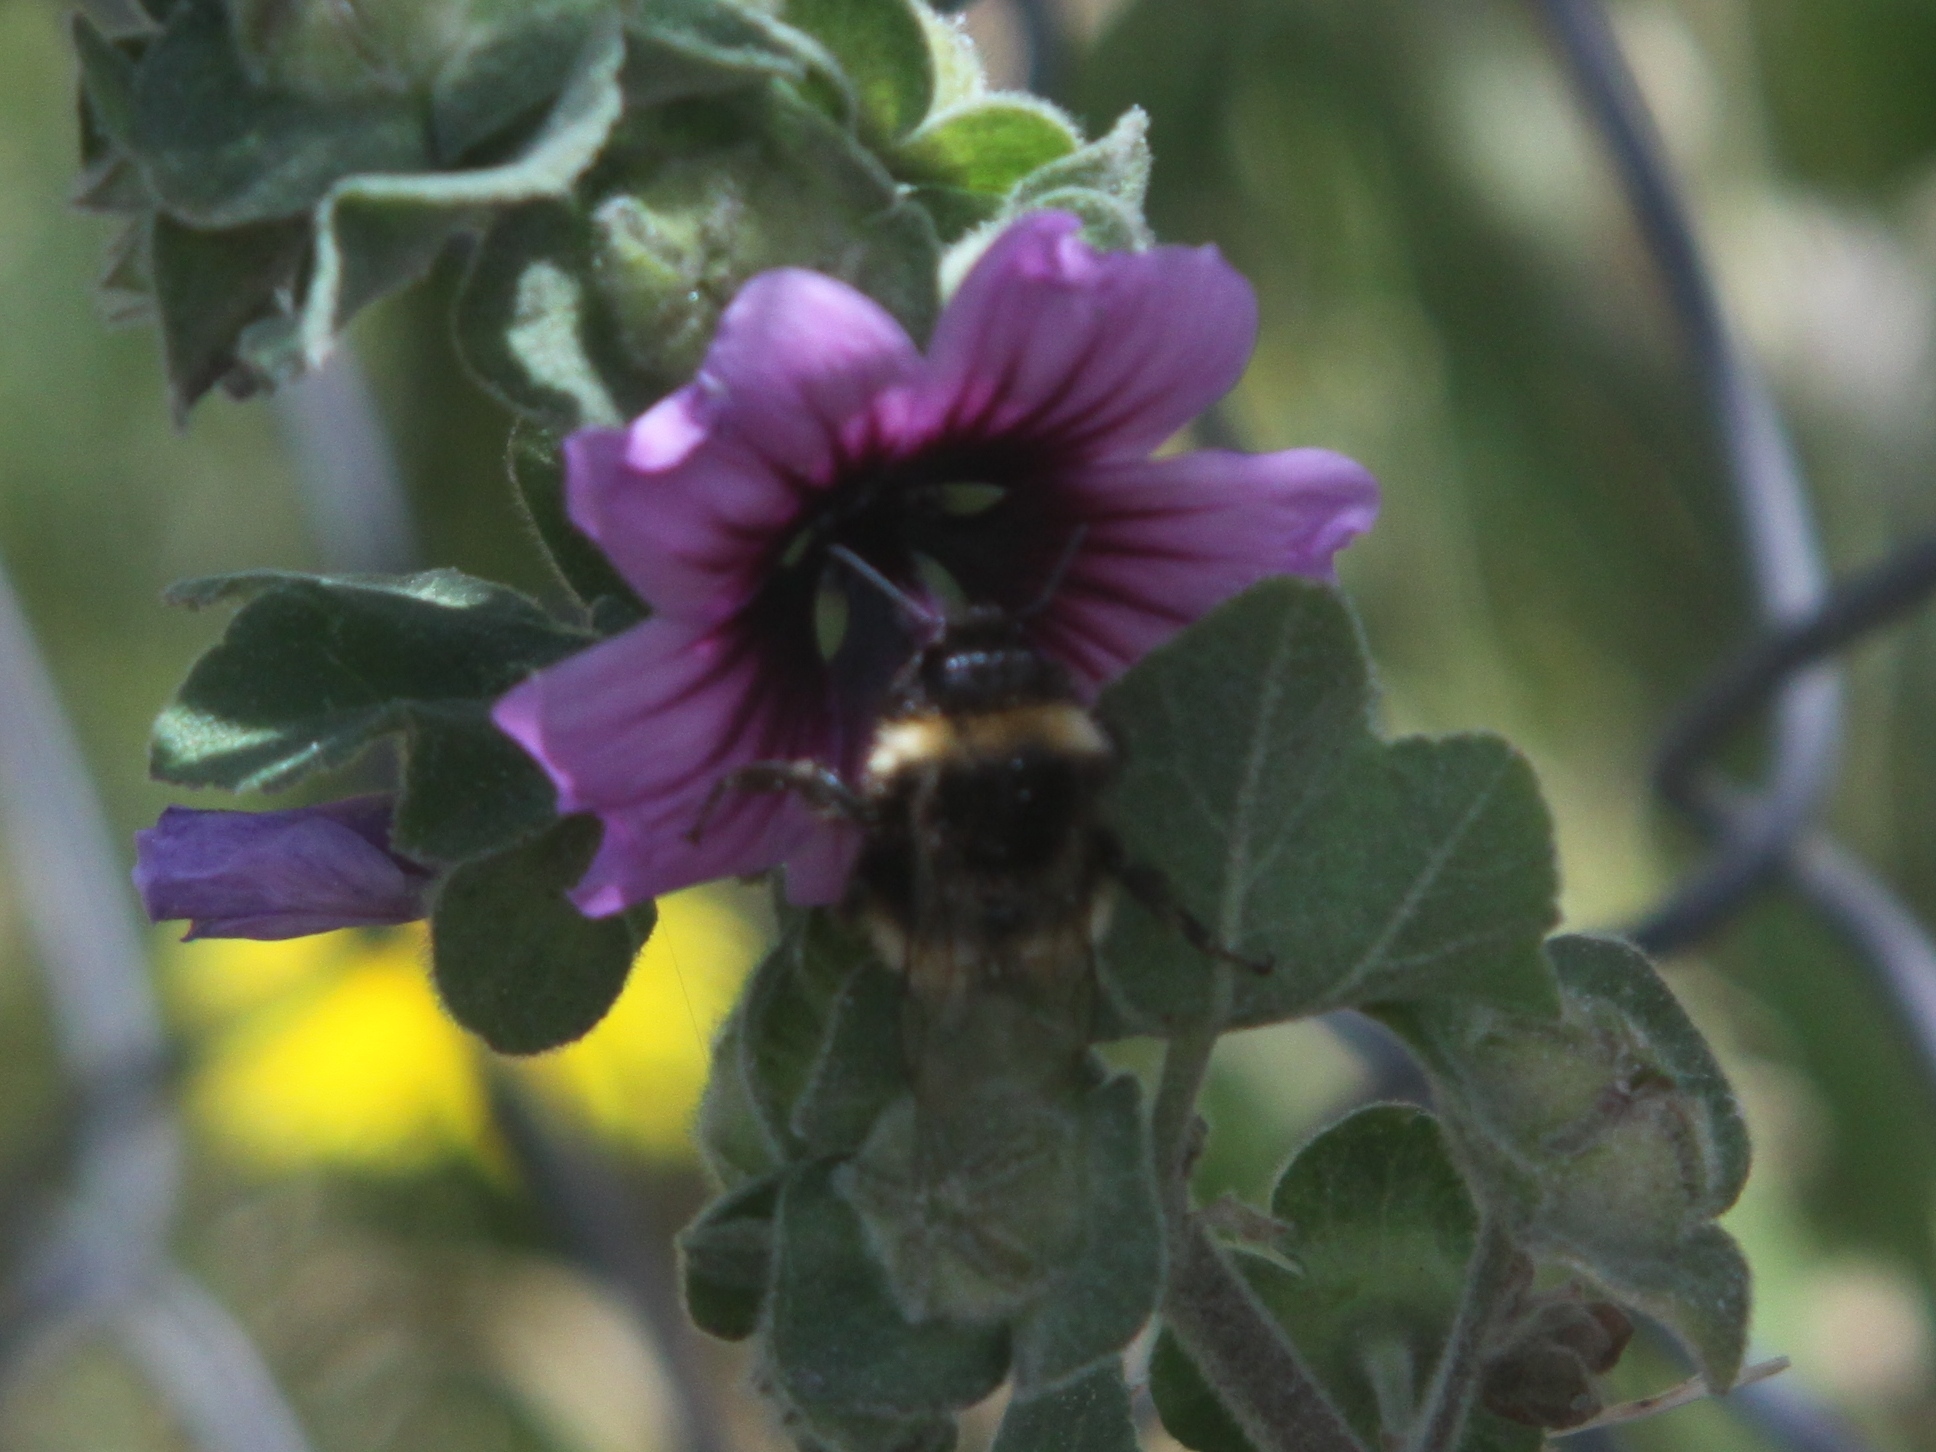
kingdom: Animalia
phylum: Arthropoda
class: Insecta
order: Hymenoptera
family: Apidae
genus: Bombus
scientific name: Bombus terrestris
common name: Buff-tailed bumblebee
